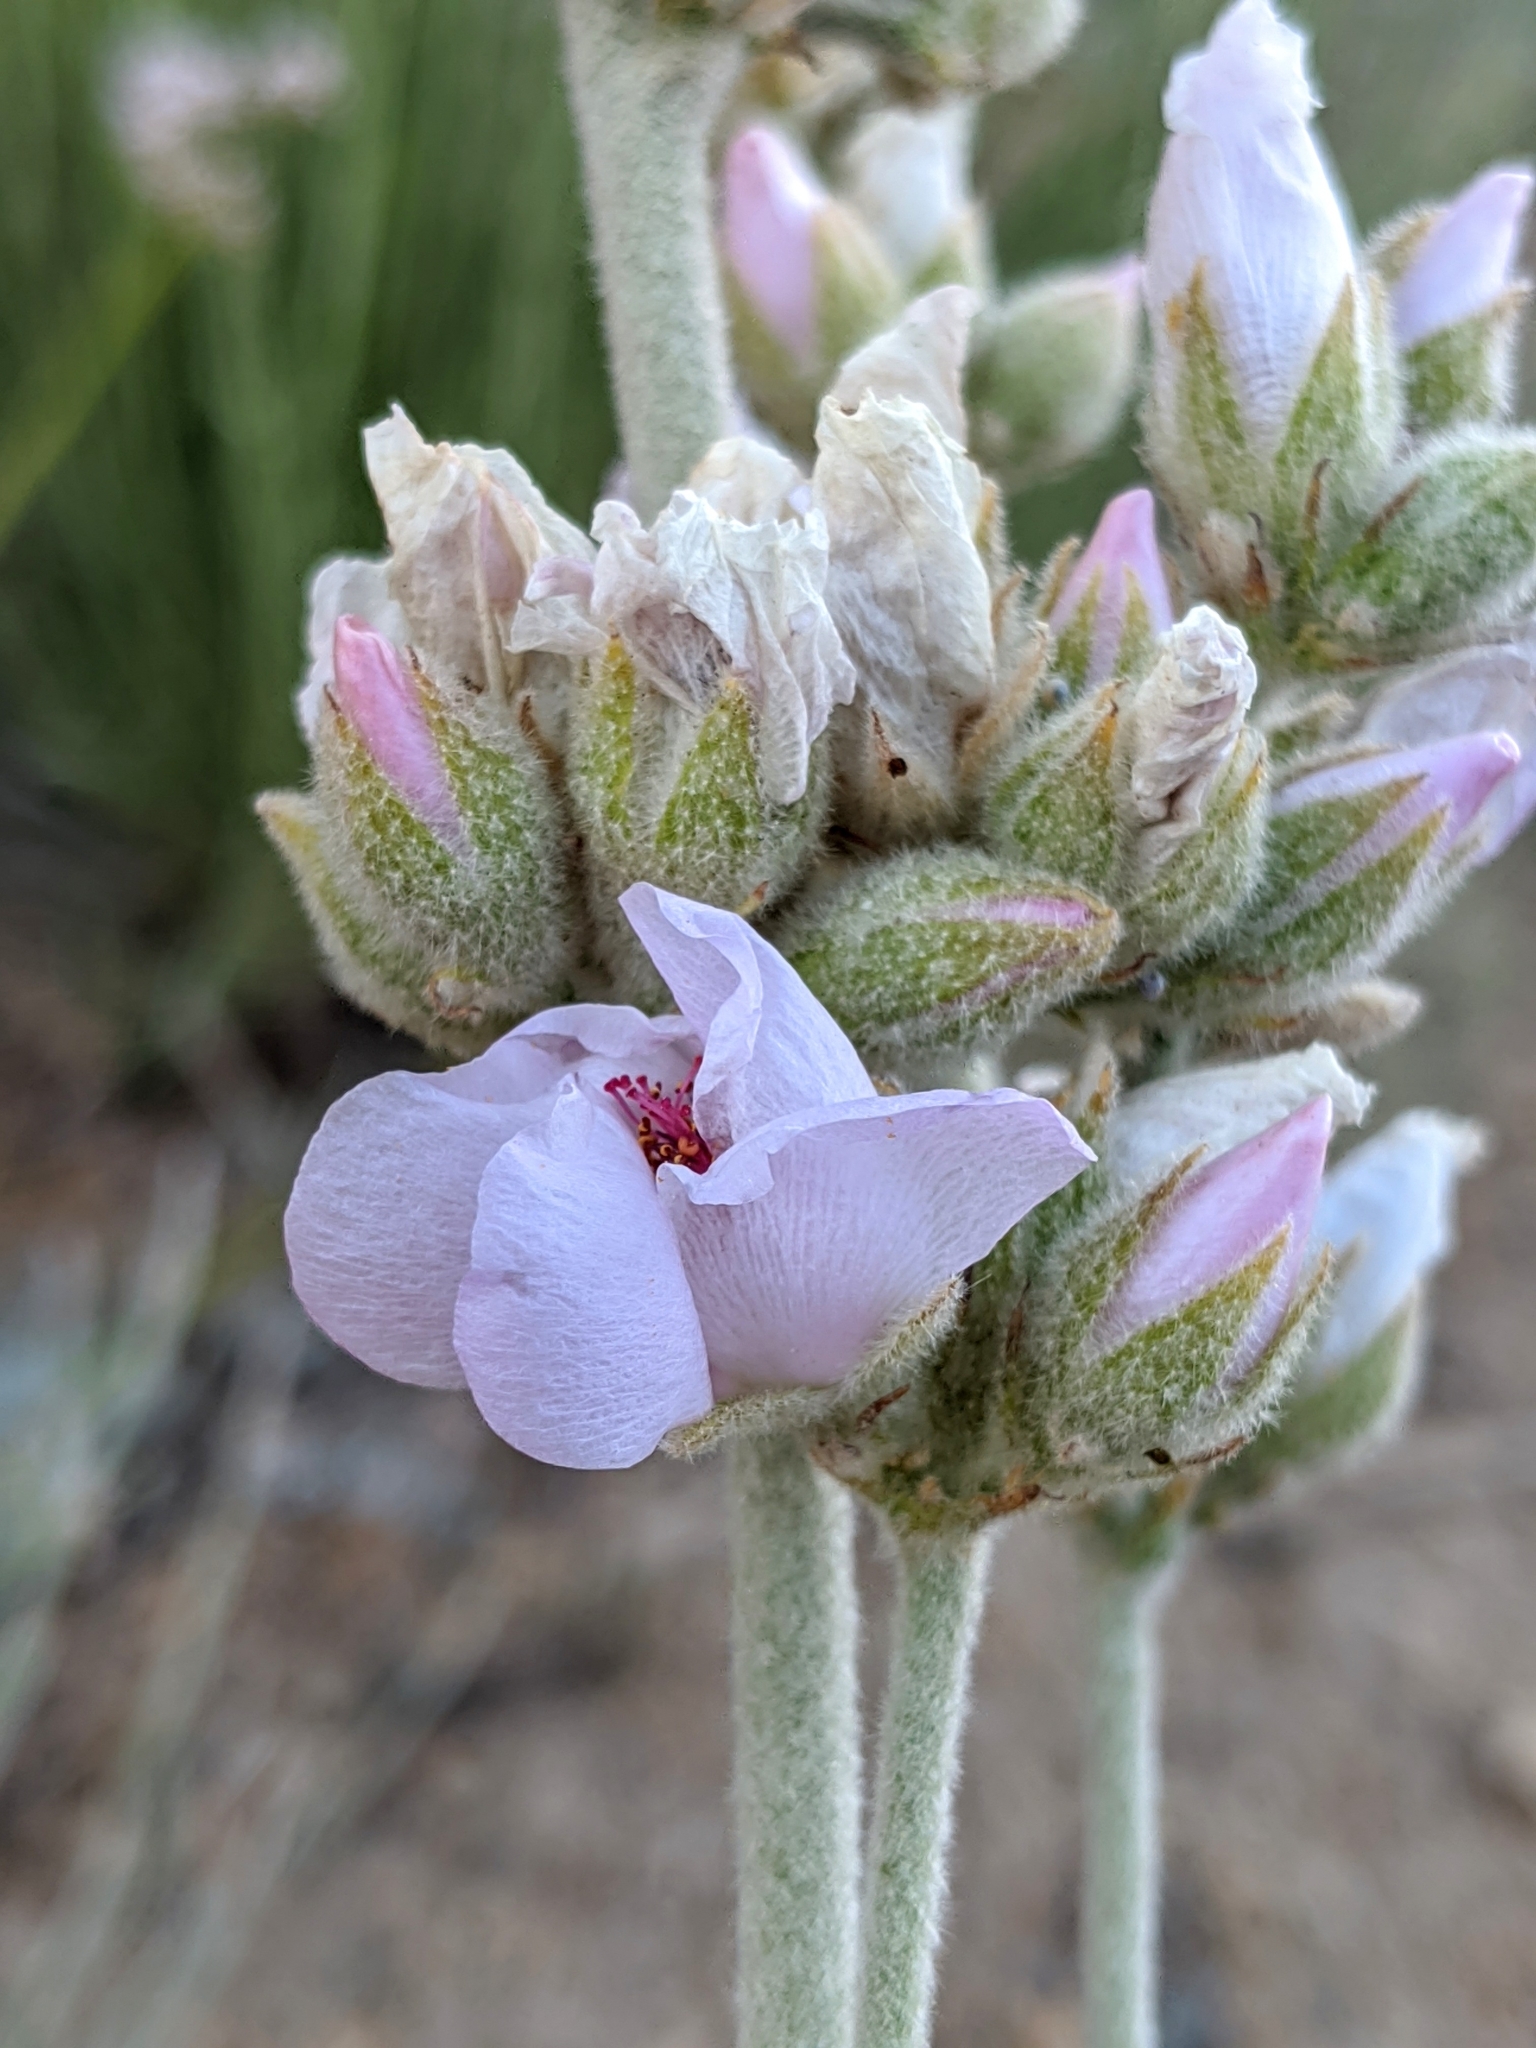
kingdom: Plantae
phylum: Tracheophyta
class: Magnoliopsida
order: Malvales
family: Malvaceae
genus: Malacothamnus
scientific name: Malacothamnus fremontii
